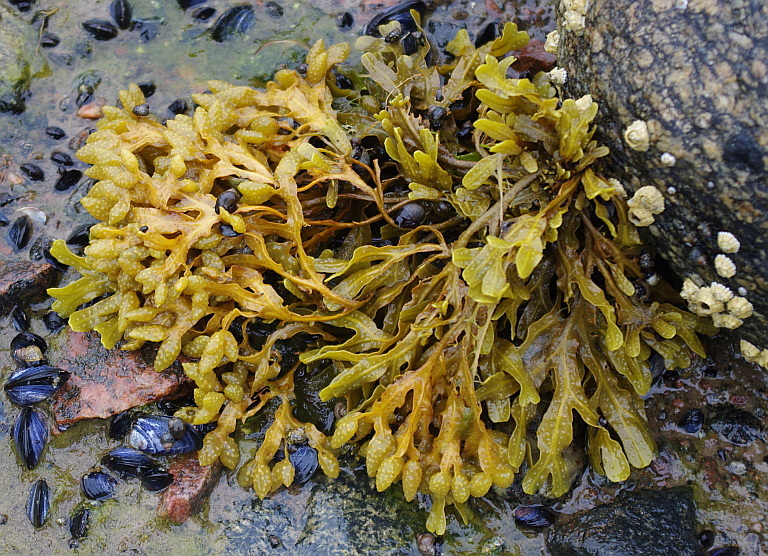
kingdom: Chromista
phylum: Ochrophyta
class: Phaeophyceae
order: Fucales
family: Fucaceae
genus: Fucus
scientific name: Fucus vesiculosus
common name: Bladder wrack
